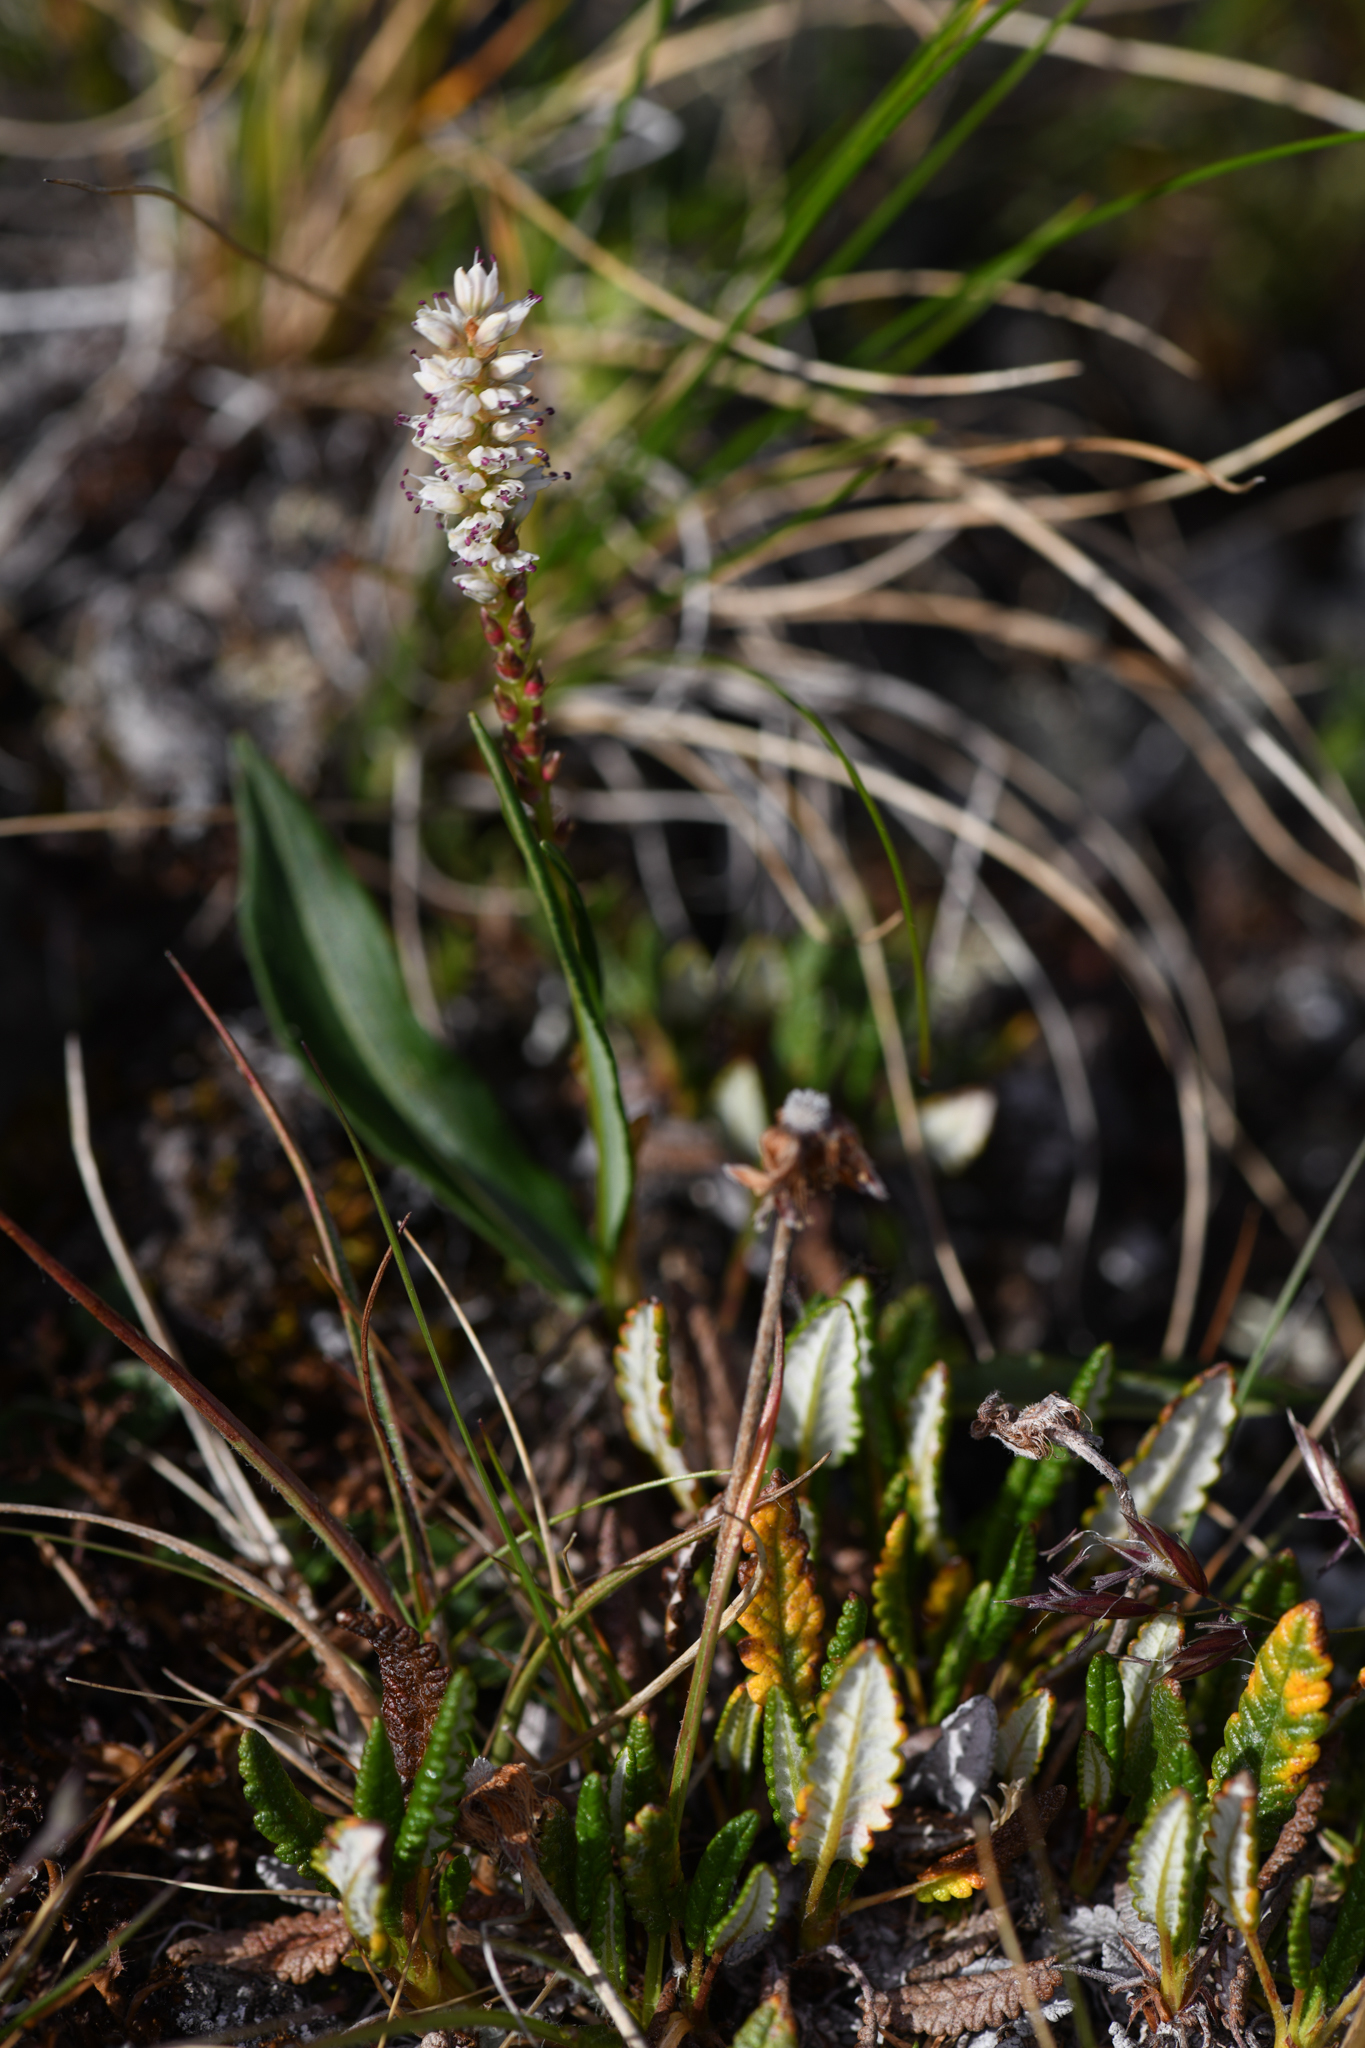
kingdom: Plantae
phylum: Tracheophyta
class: Magnoliopsida
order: Caryophyllales
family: Polygonaceae
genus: Bistorta
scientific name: Bistorta vivipara
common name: Alpine bistort
